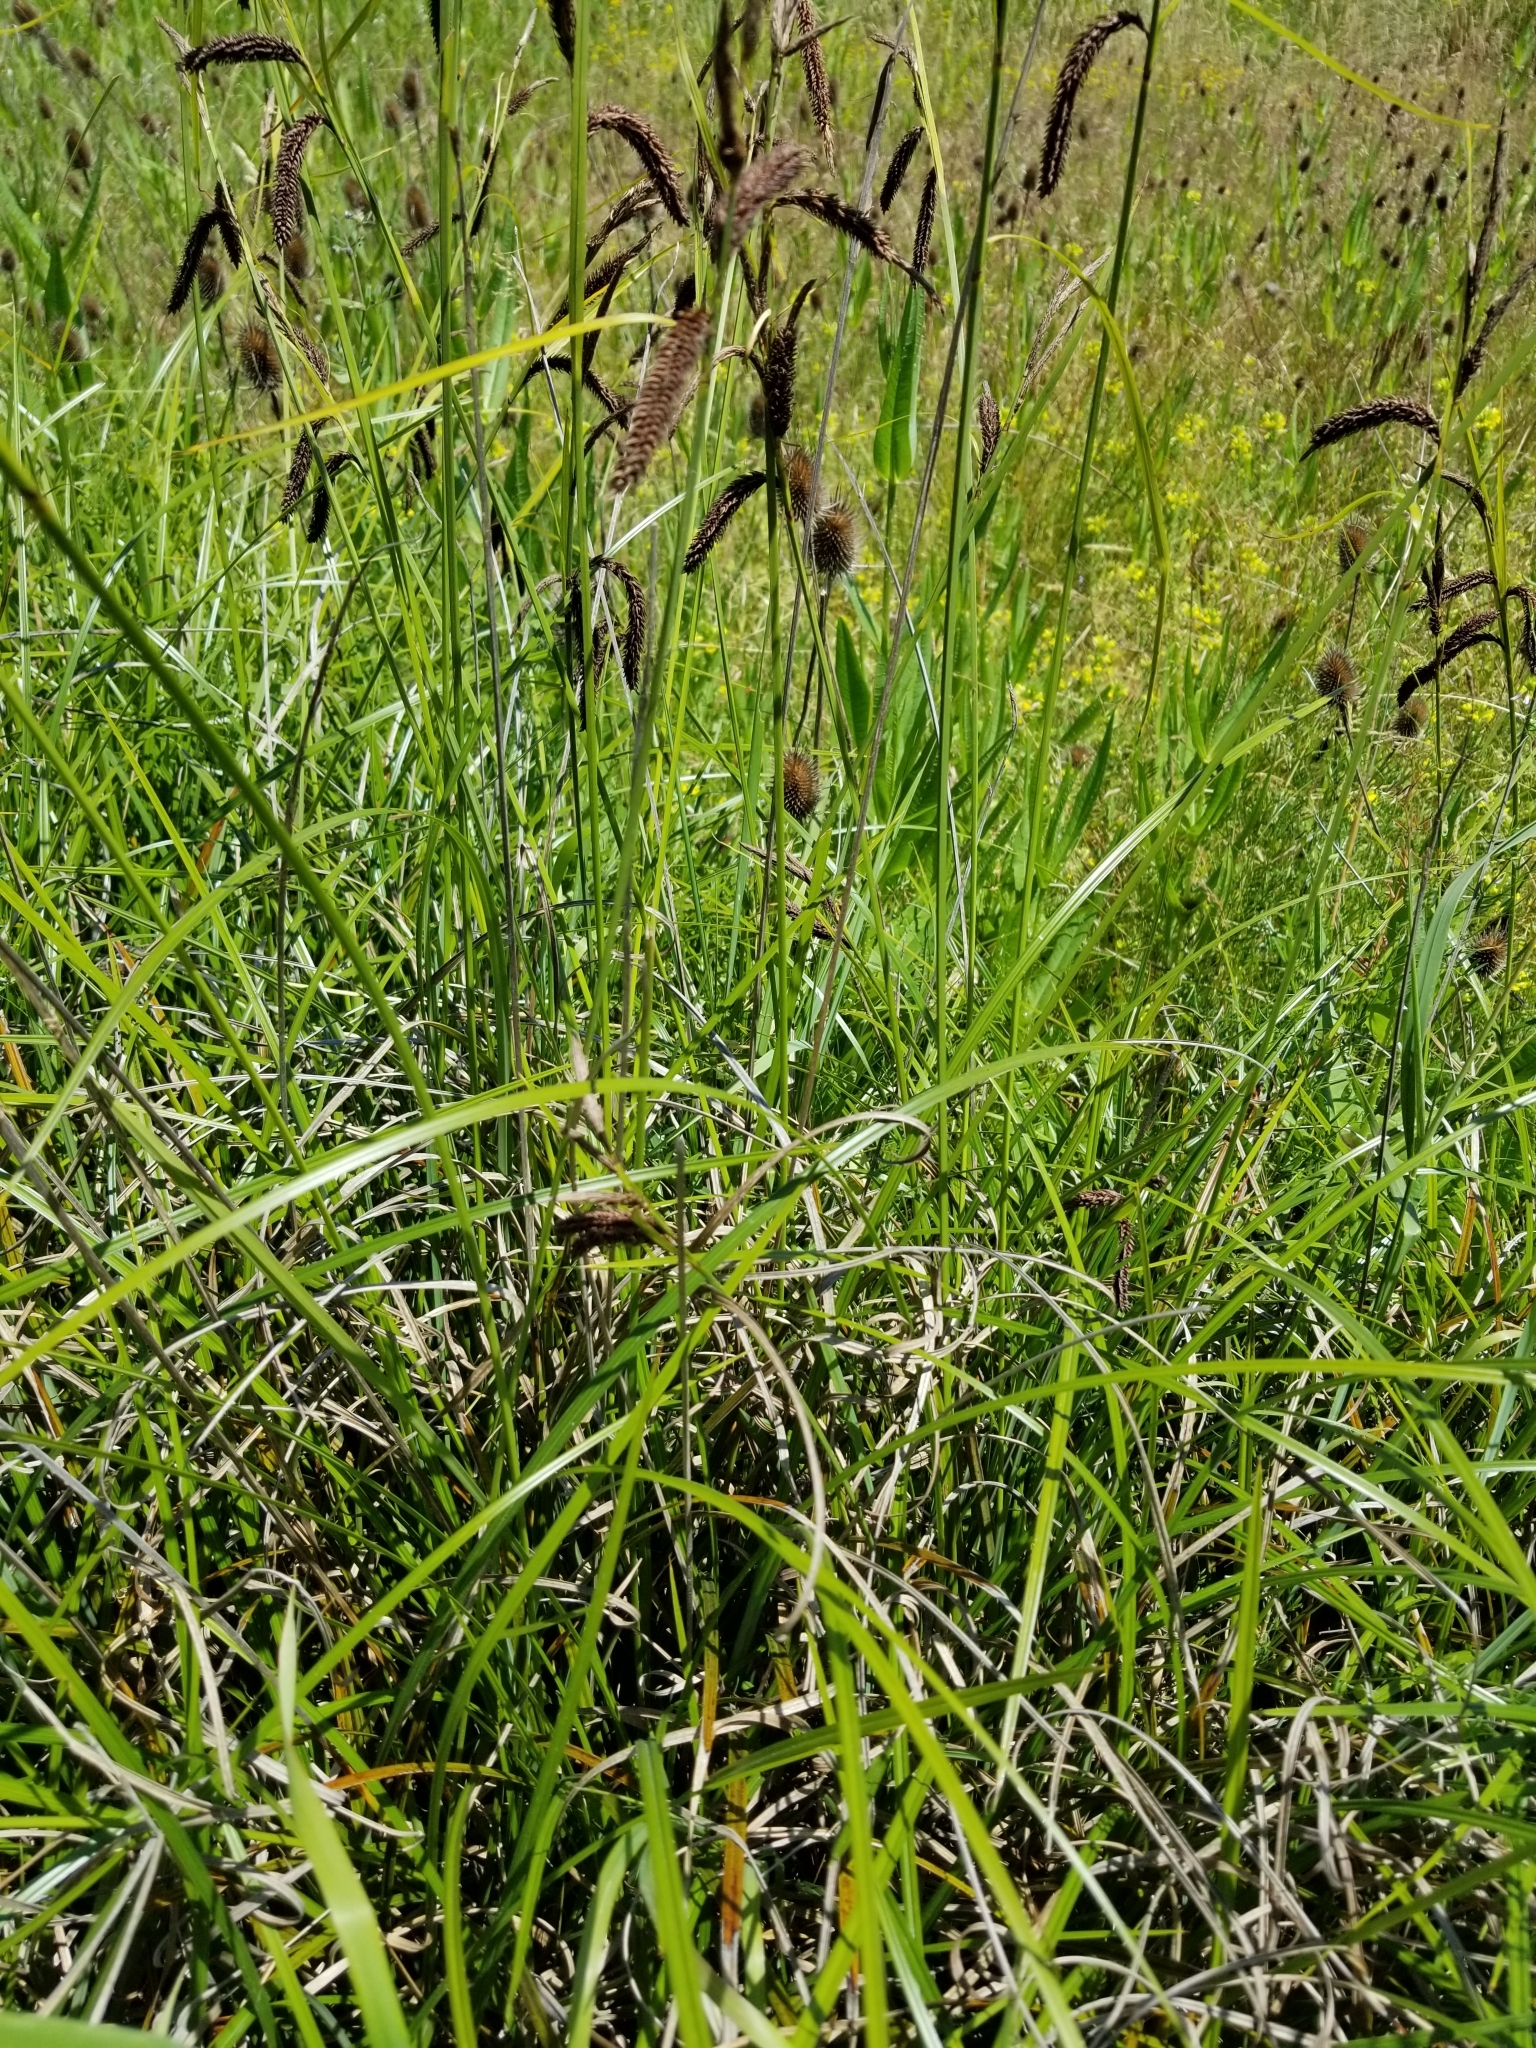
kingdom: Plantae
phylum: Tracheophyta
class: Liliopsida
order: Poales
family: Cyperaceae
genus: Carex
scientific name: Carex obnupta
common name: Slough sedge
